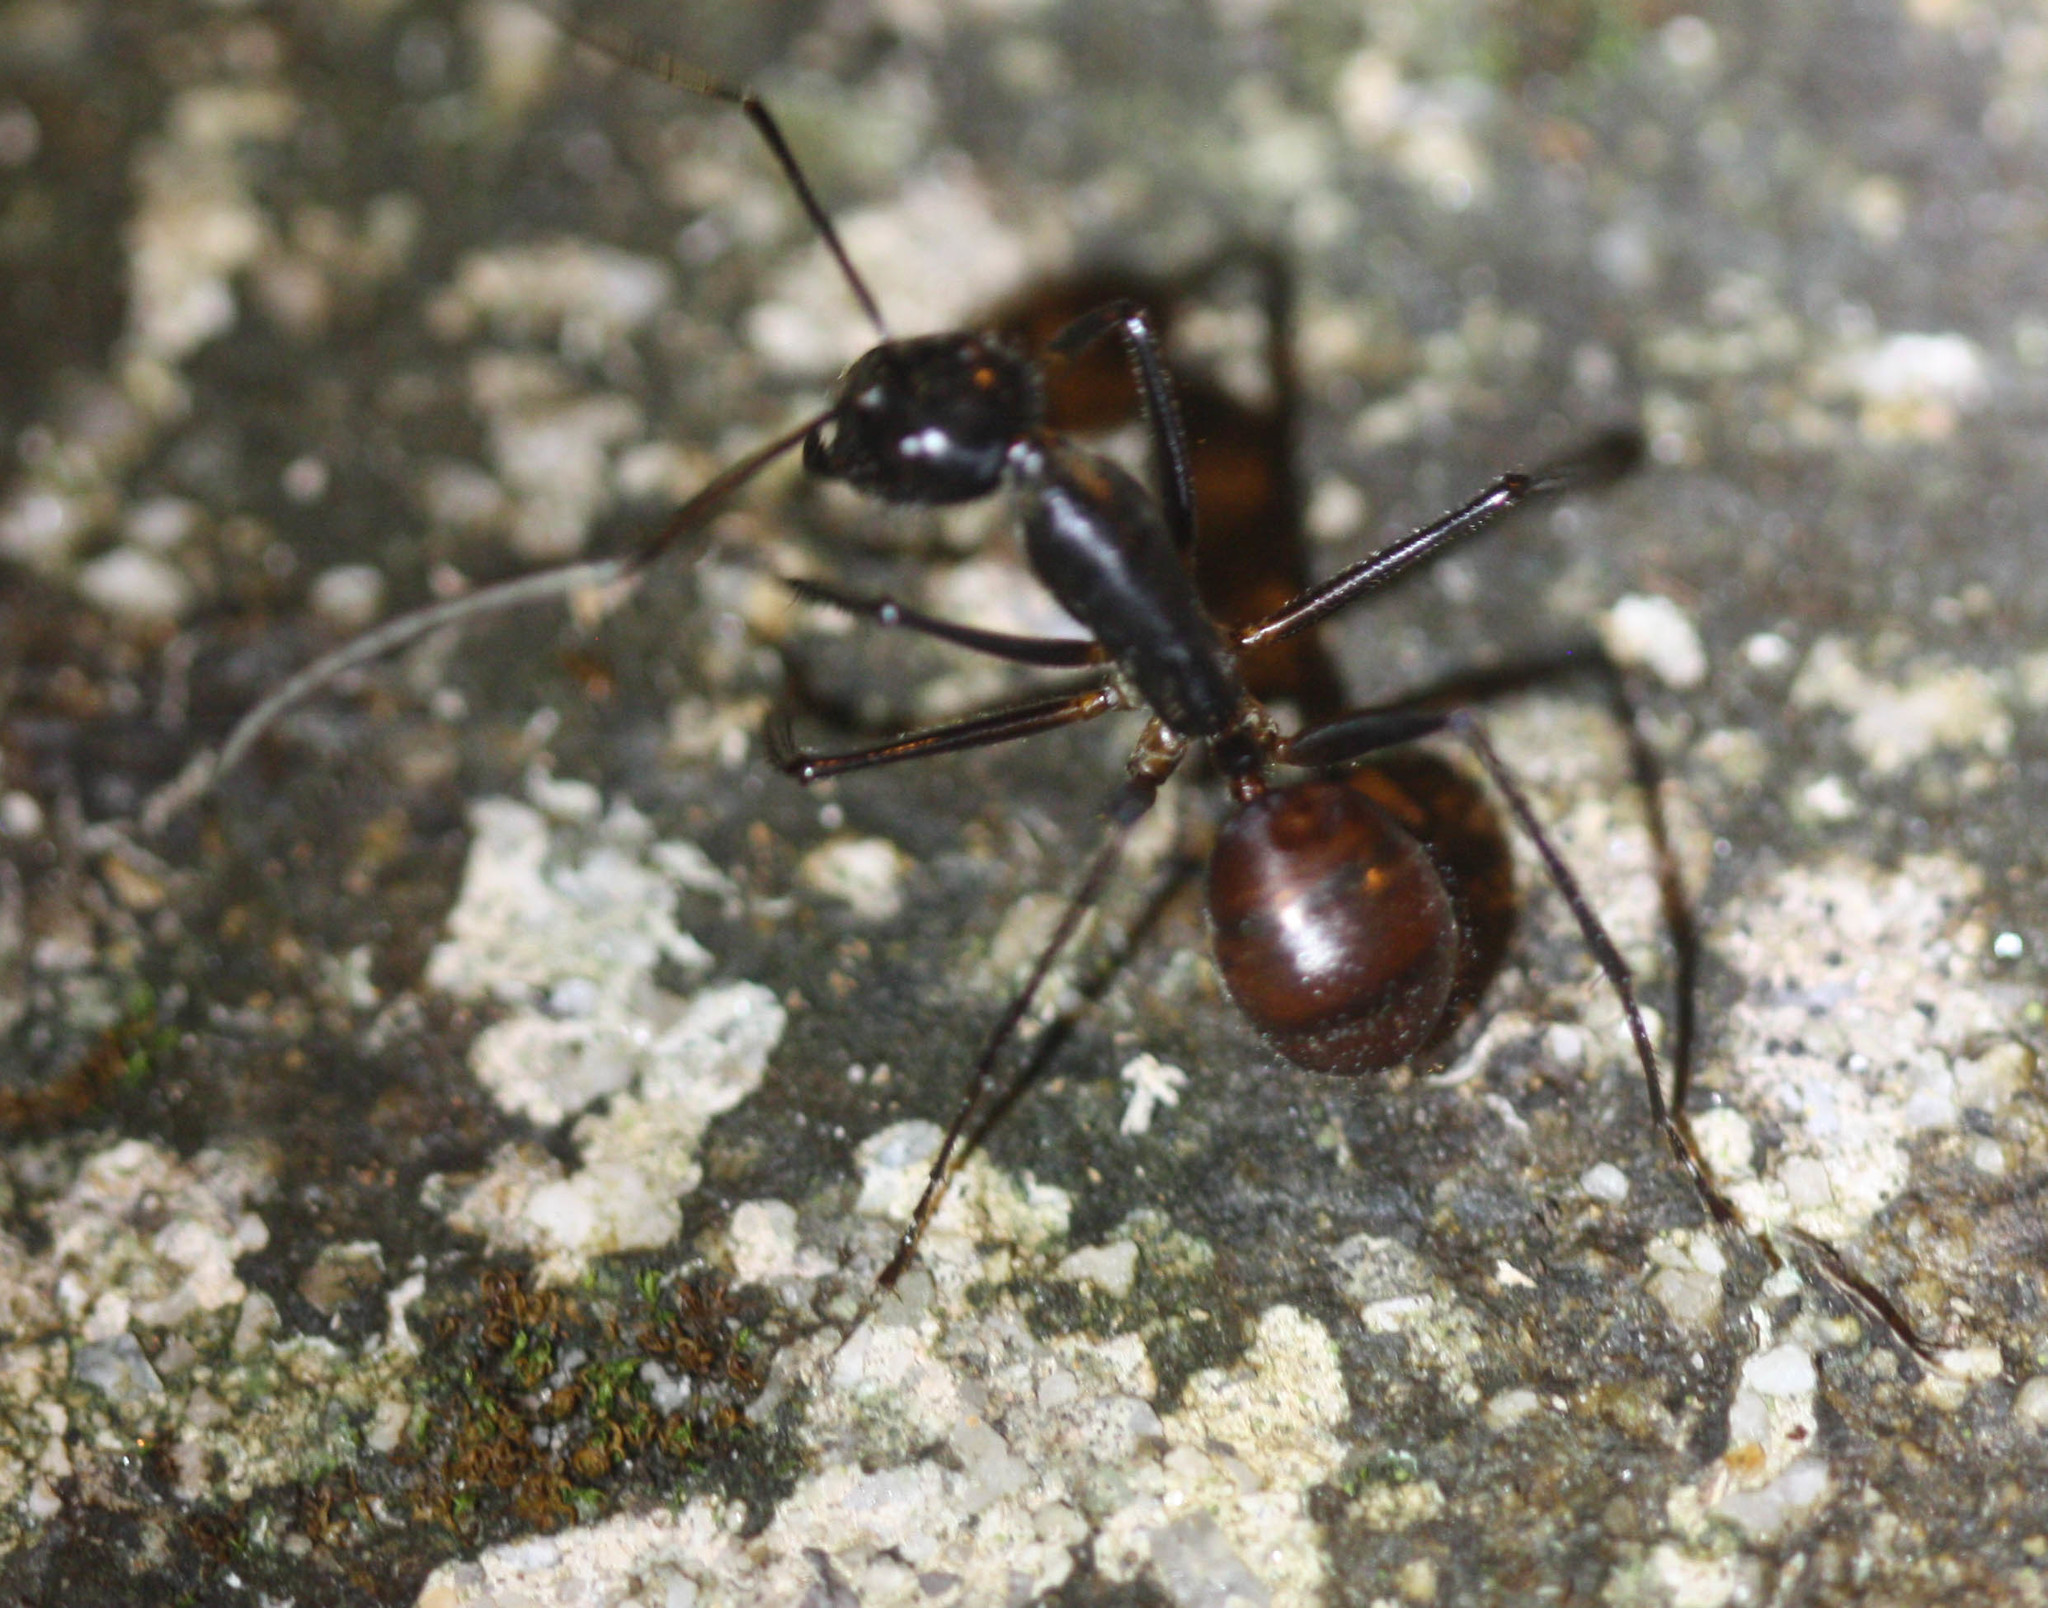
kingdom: Animalia
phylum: Arthropoda
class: Insecta
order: Hymenoptera
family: Formicidae
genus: Dinomyrmex
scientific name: Dinomyrmex
